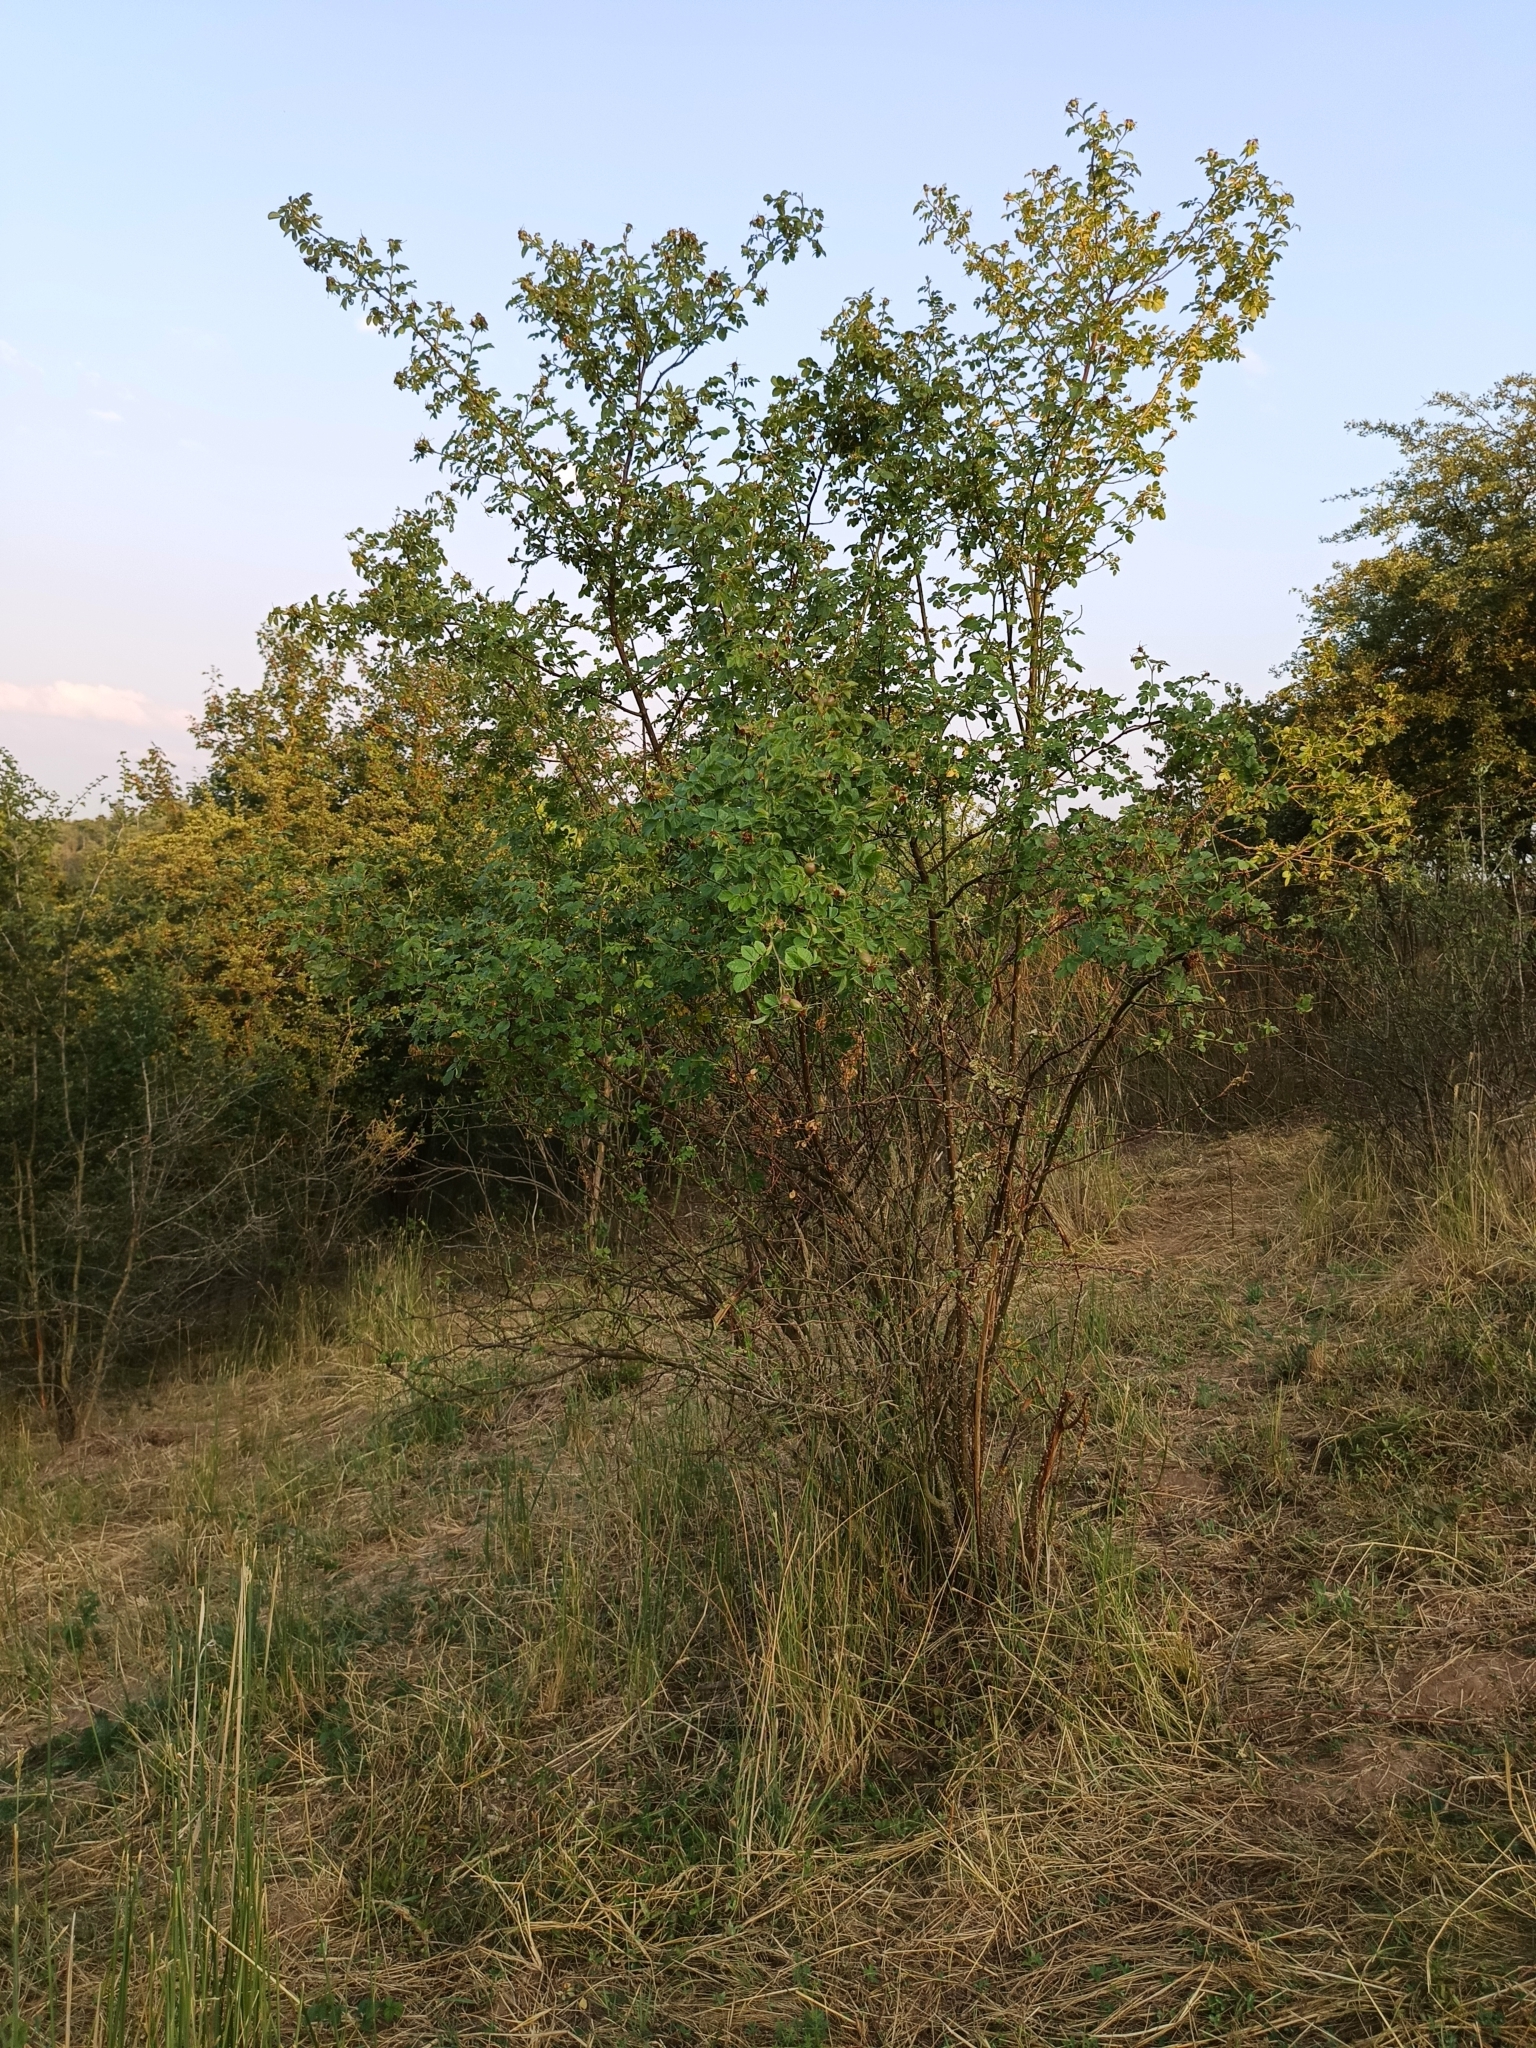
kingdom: Plantae
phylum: Tracheophyta
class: Magnoliopsida
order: Rosales
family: Rosaceae
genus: Rosa
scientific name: Rosa rubiginosa
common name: Sweet-briar
